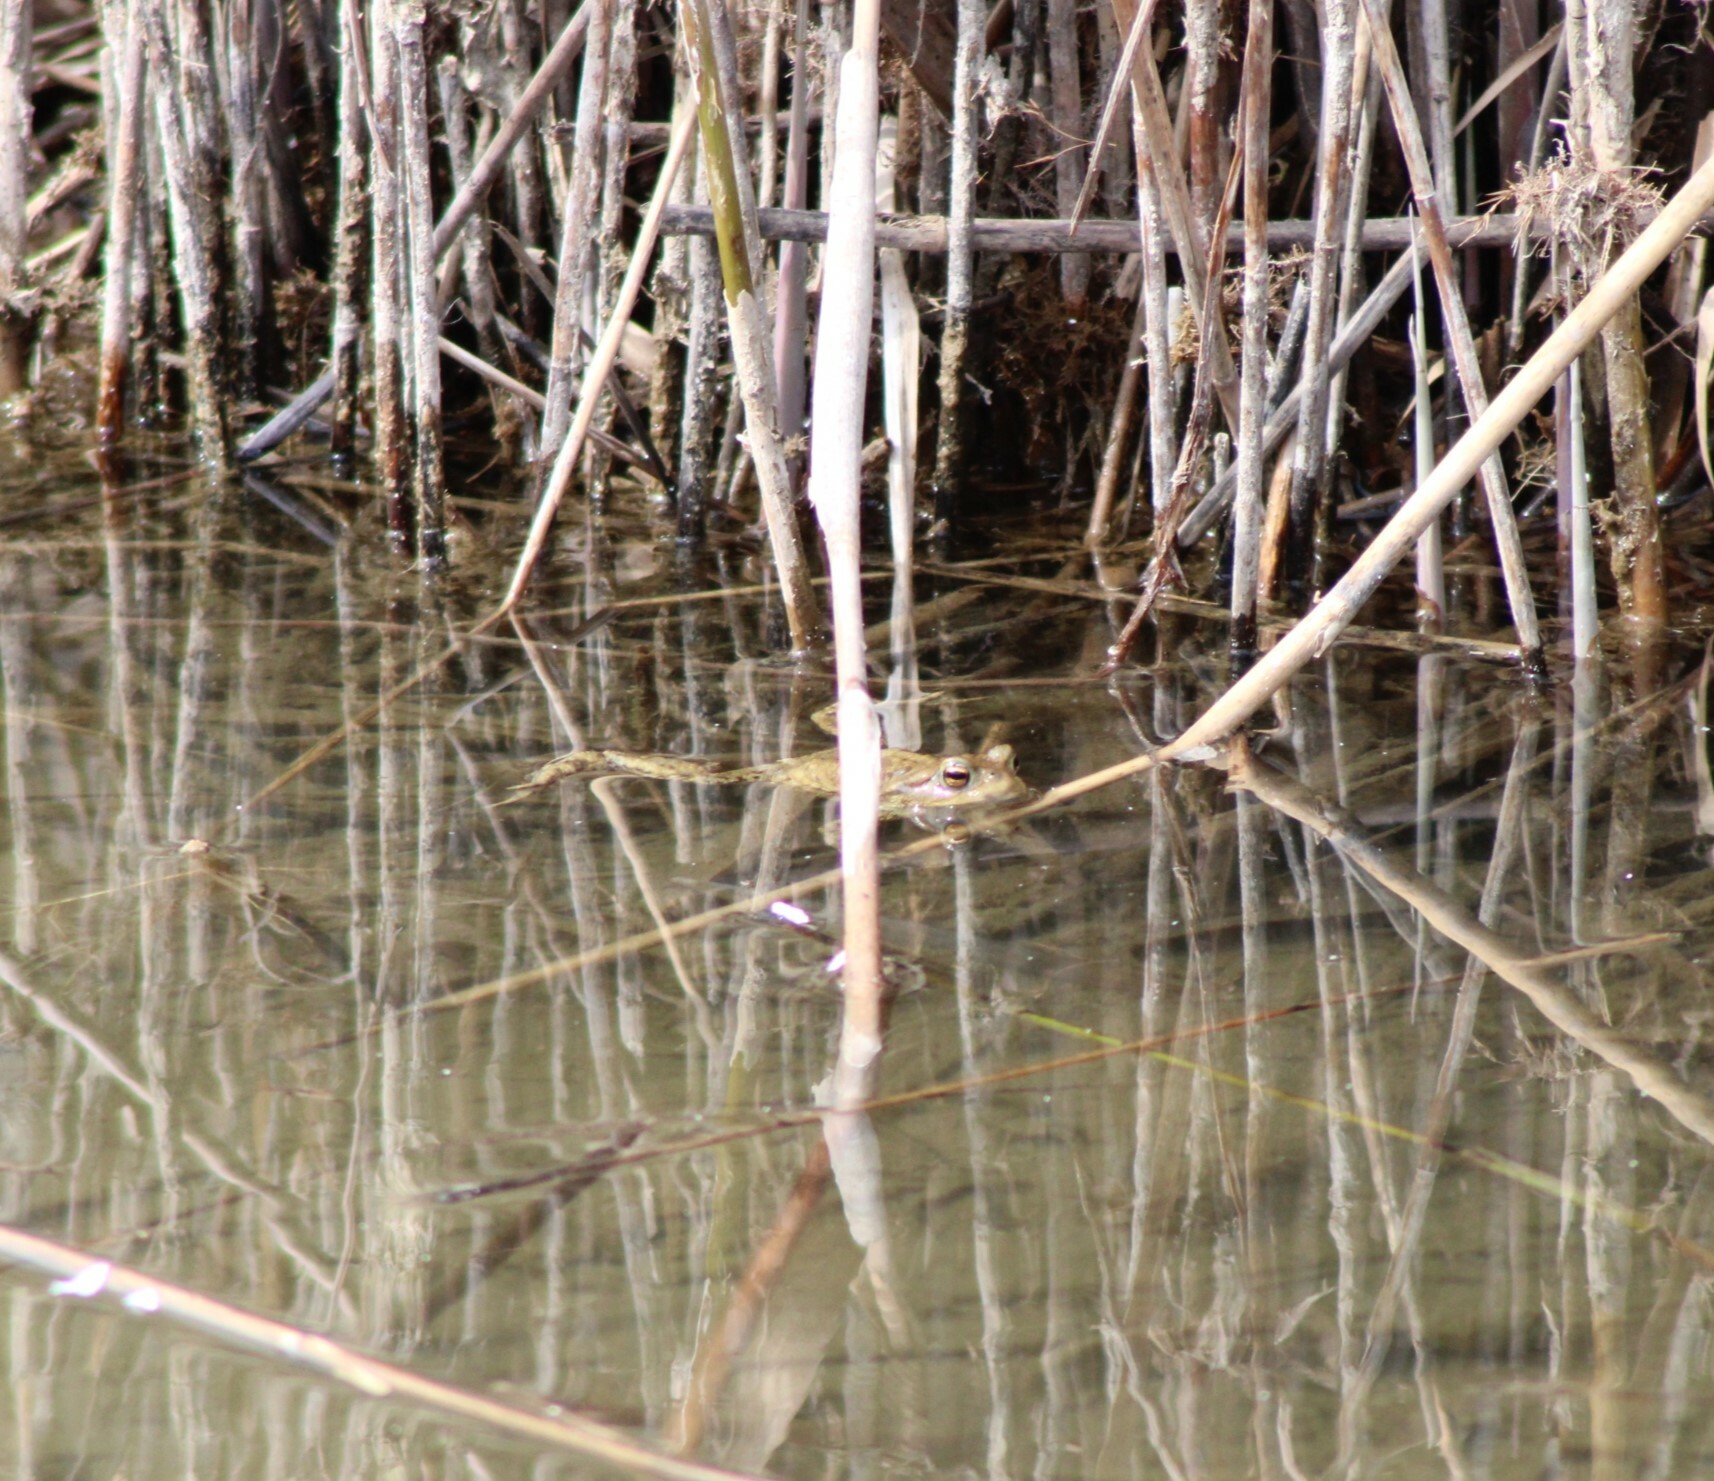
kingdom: Animalia
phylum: Chordata
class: Amphibia
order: Anura
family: Bufonidae
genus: Bufo
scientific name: Bufo bufo
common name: Common toad
